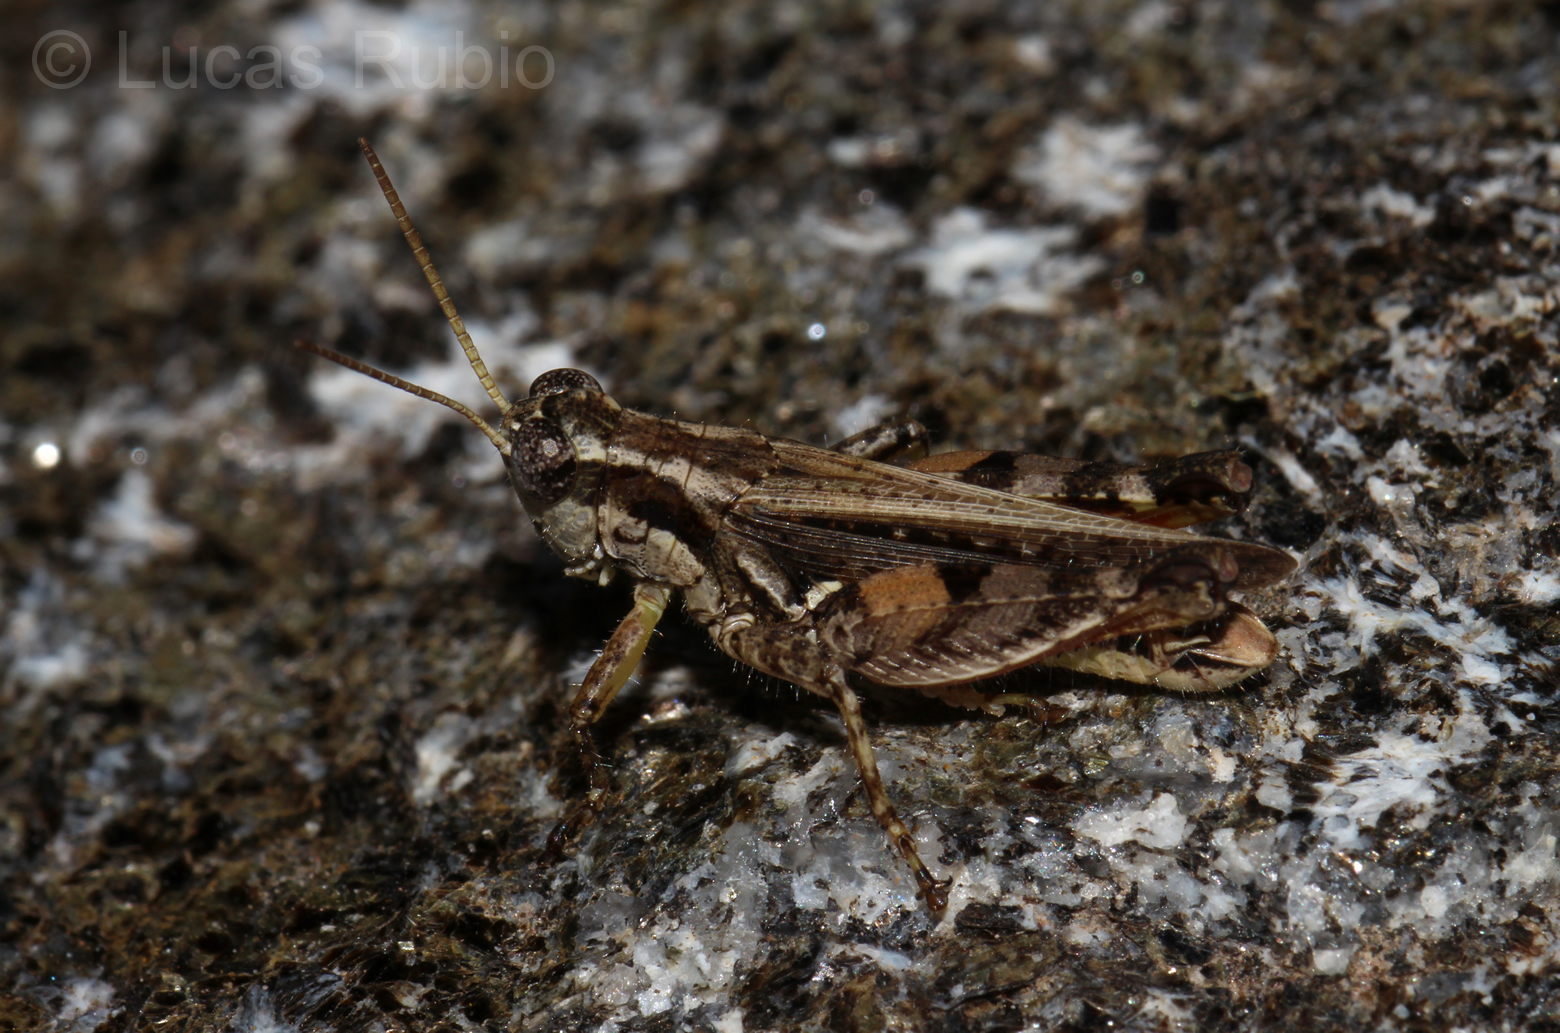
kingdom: Animalia
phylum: Arthropoda
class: Insecta
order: Orthoptera
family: Acrididae
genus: Baeacris
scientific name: Baeacris punctulata
